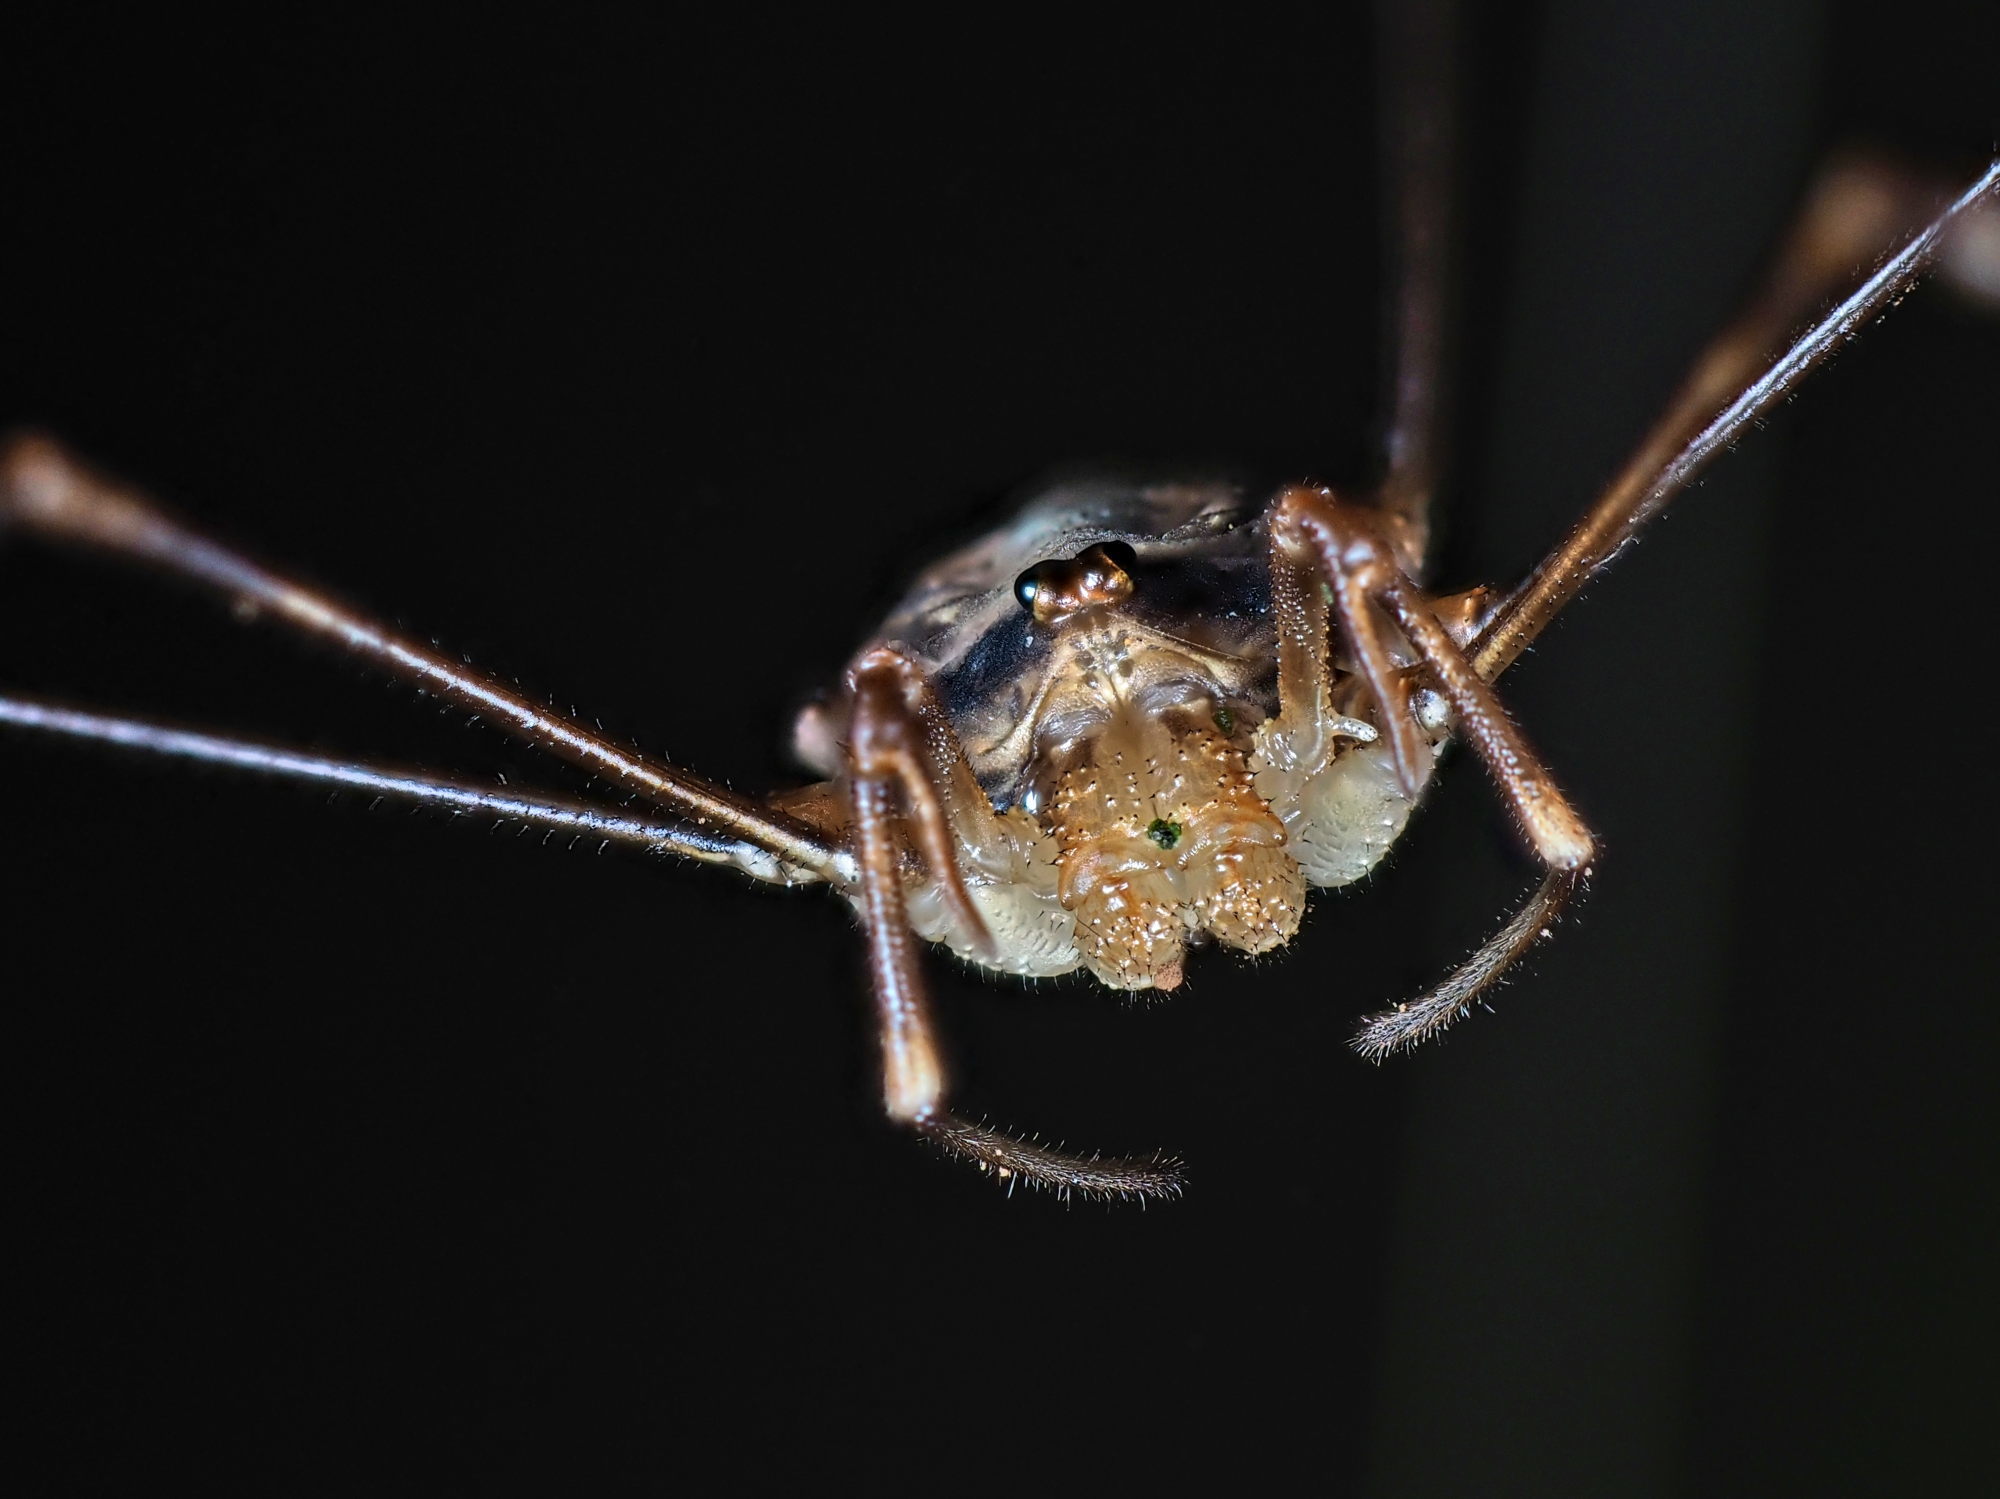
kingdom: Animalia
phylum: Arthropoda
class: Arachnida
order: Opiliones
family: Phalangiidae
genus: Dicranopalpus
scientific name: Dicranopalpus ramosus
